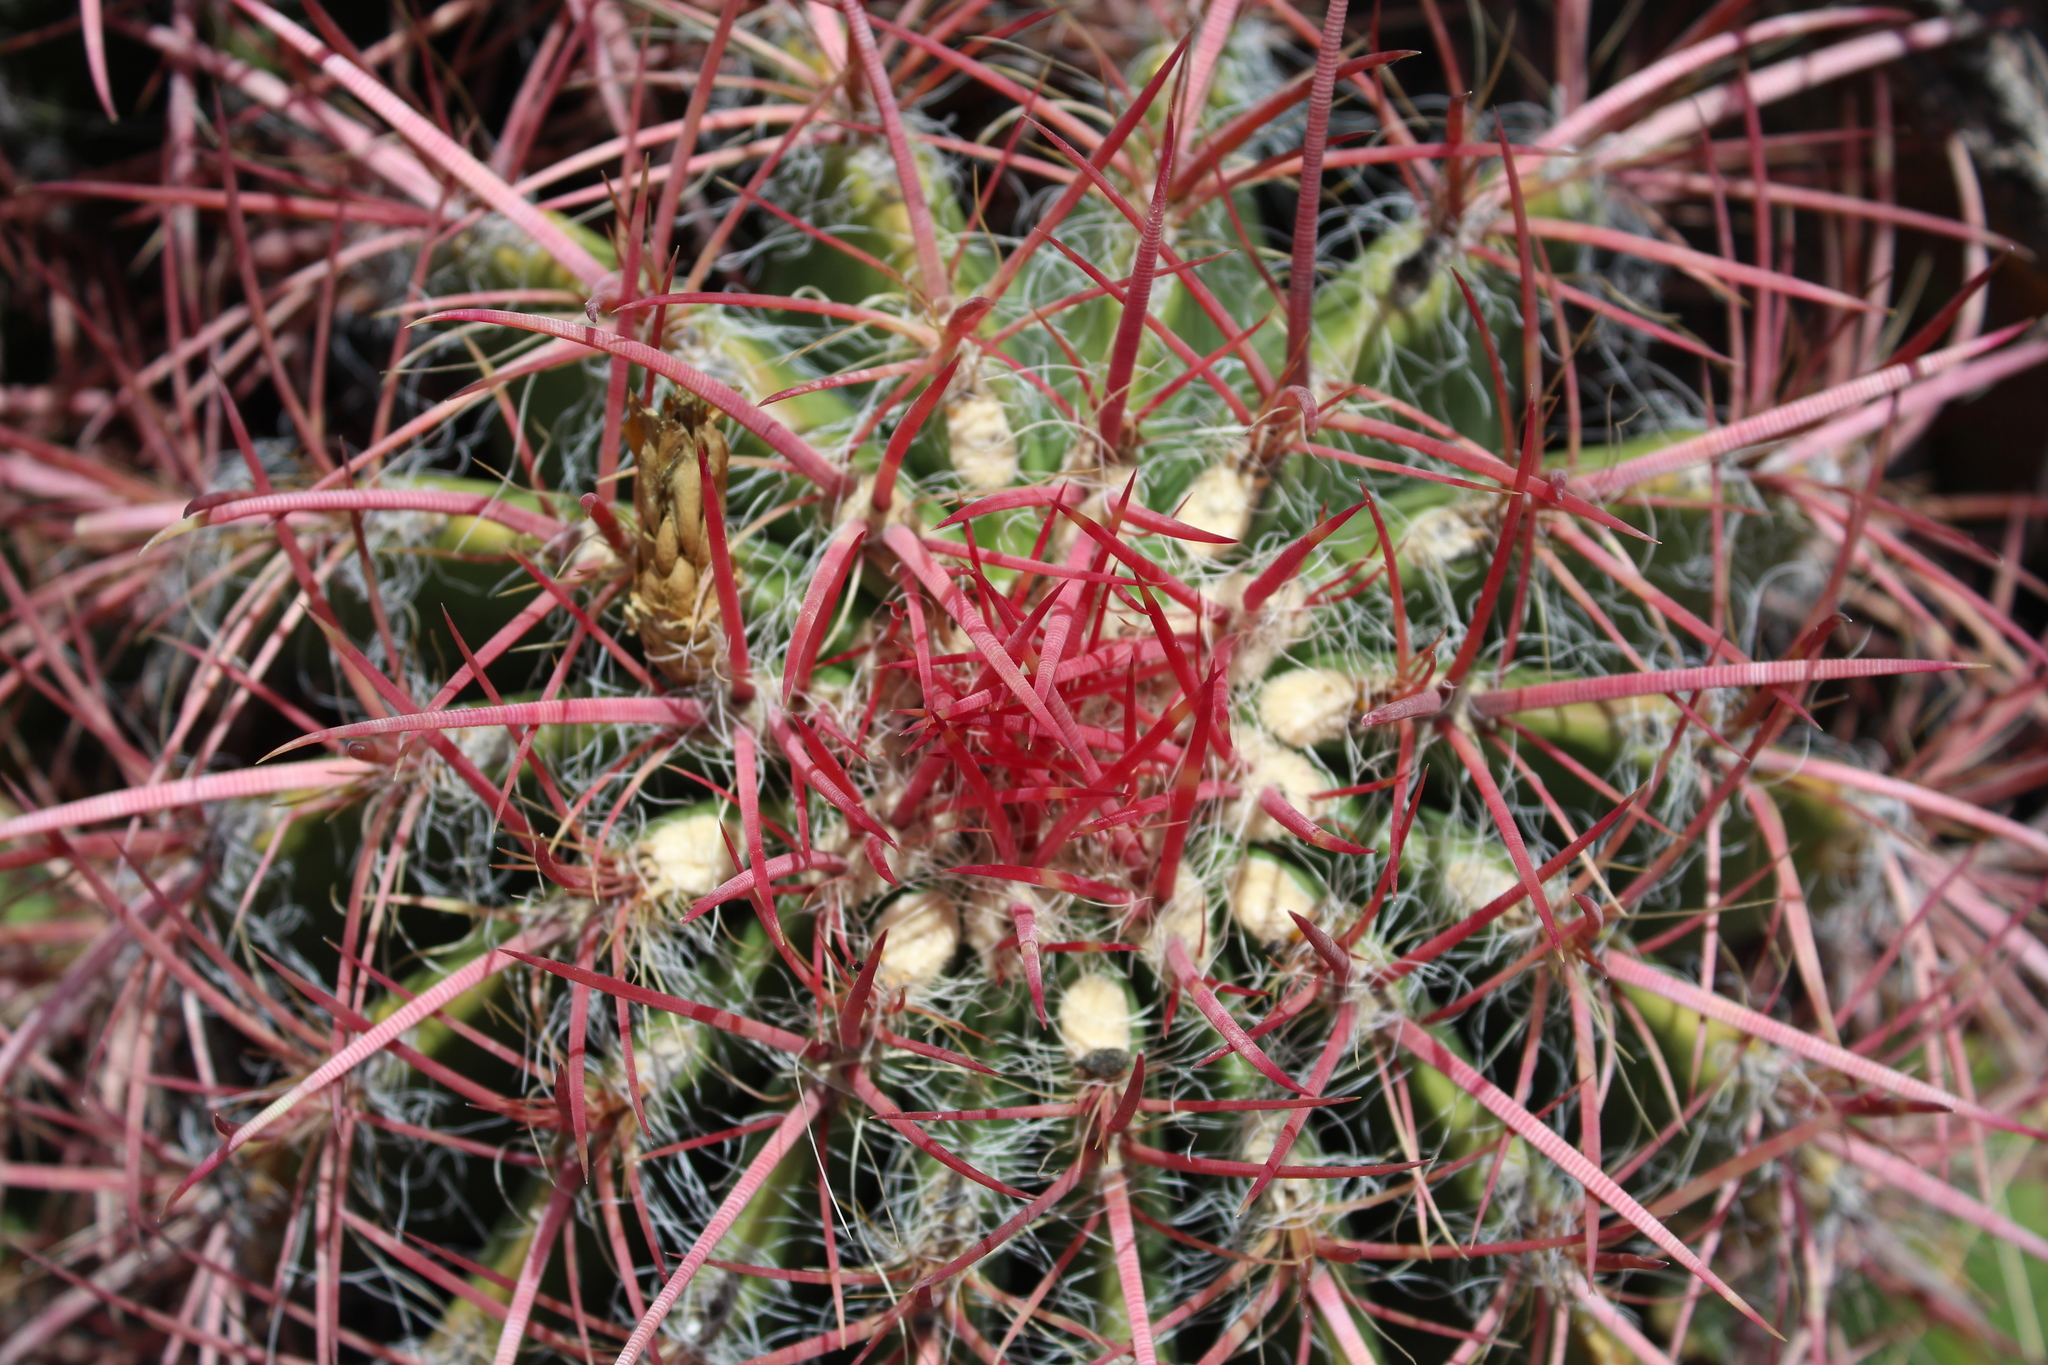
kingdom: Plantae
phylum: Tracheophyta
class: Magnoliopsida
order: Caryophyllales
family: Cactaceae
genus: Ferocactus
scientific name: Ferocactus pilosus
